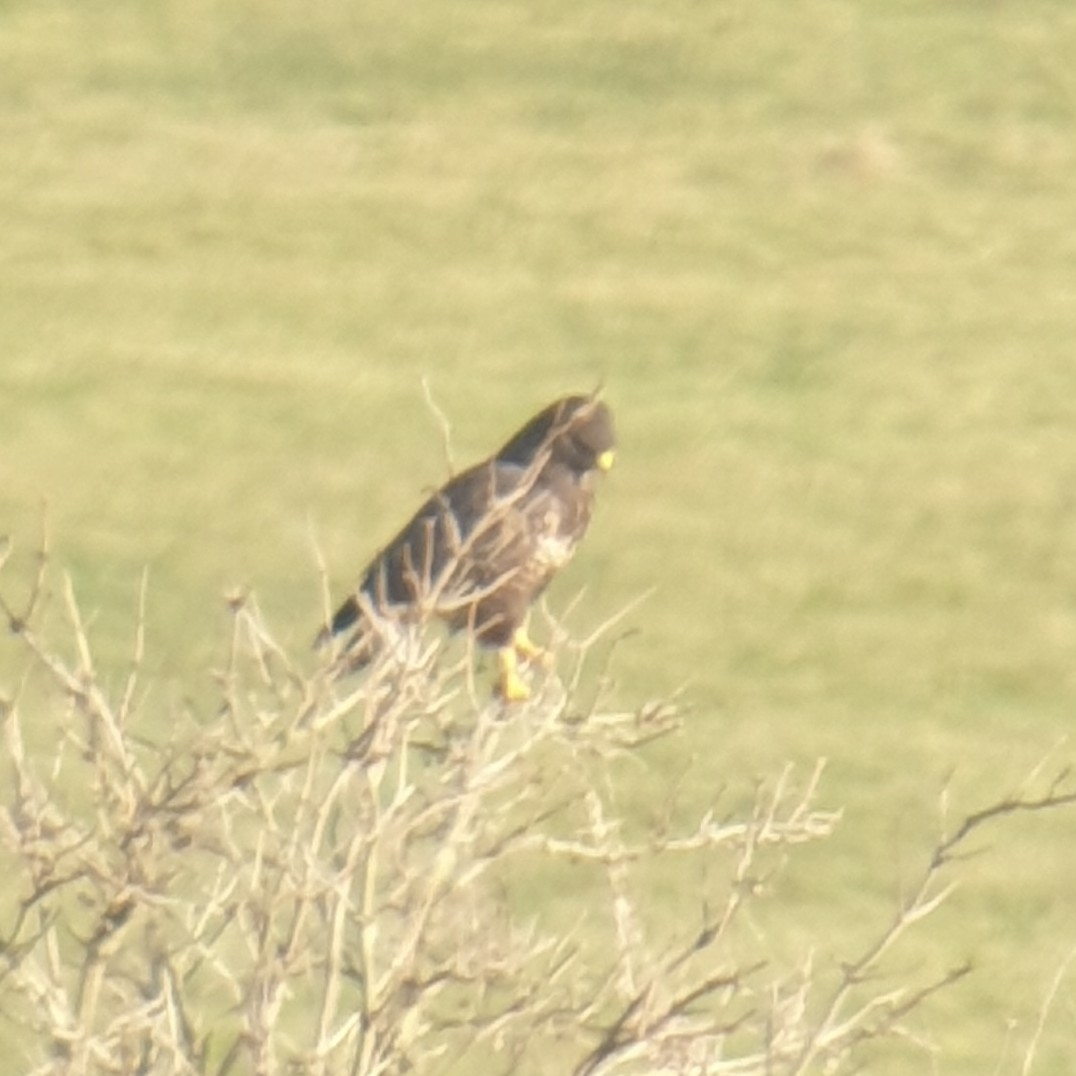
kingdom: Animalia
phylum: Chordata
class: Aves
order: Accipitriformes
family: Accipitridae
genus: Buteo
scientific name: Buteo buteo
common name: Common buzzard
